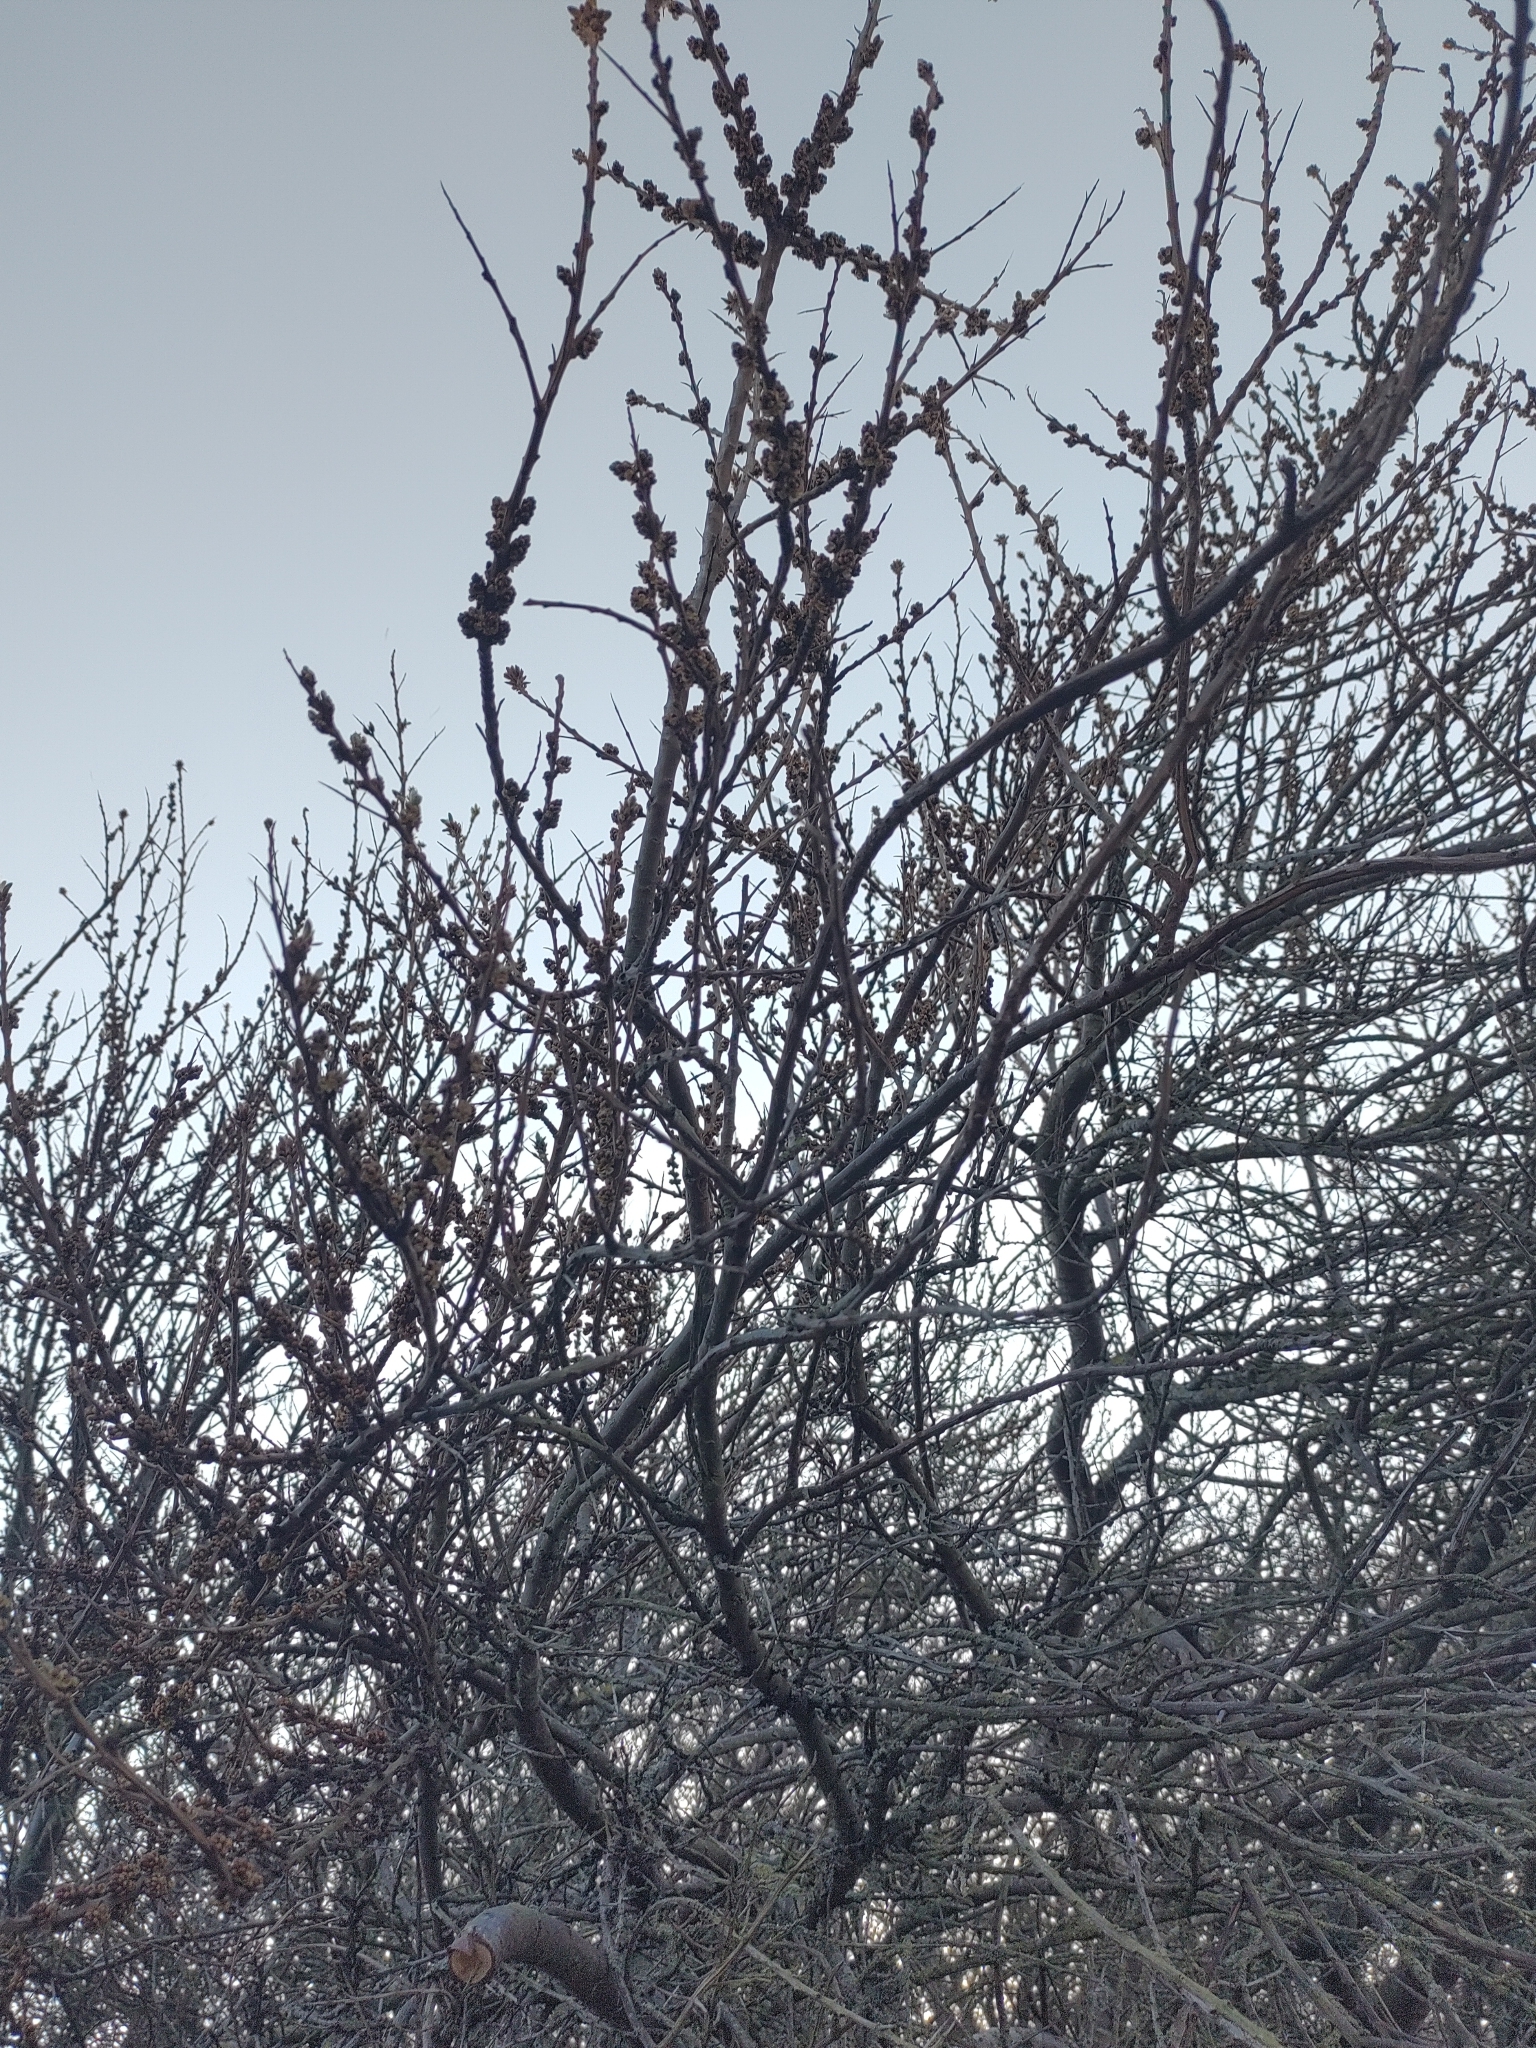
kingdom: Plantae
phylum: Tracheophyta
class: Magnoliopsida
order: Rosales
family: Elaeagnaceae
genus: Hippophae
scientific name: Hippophae rhamnoides
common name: Sea-buckthorn
